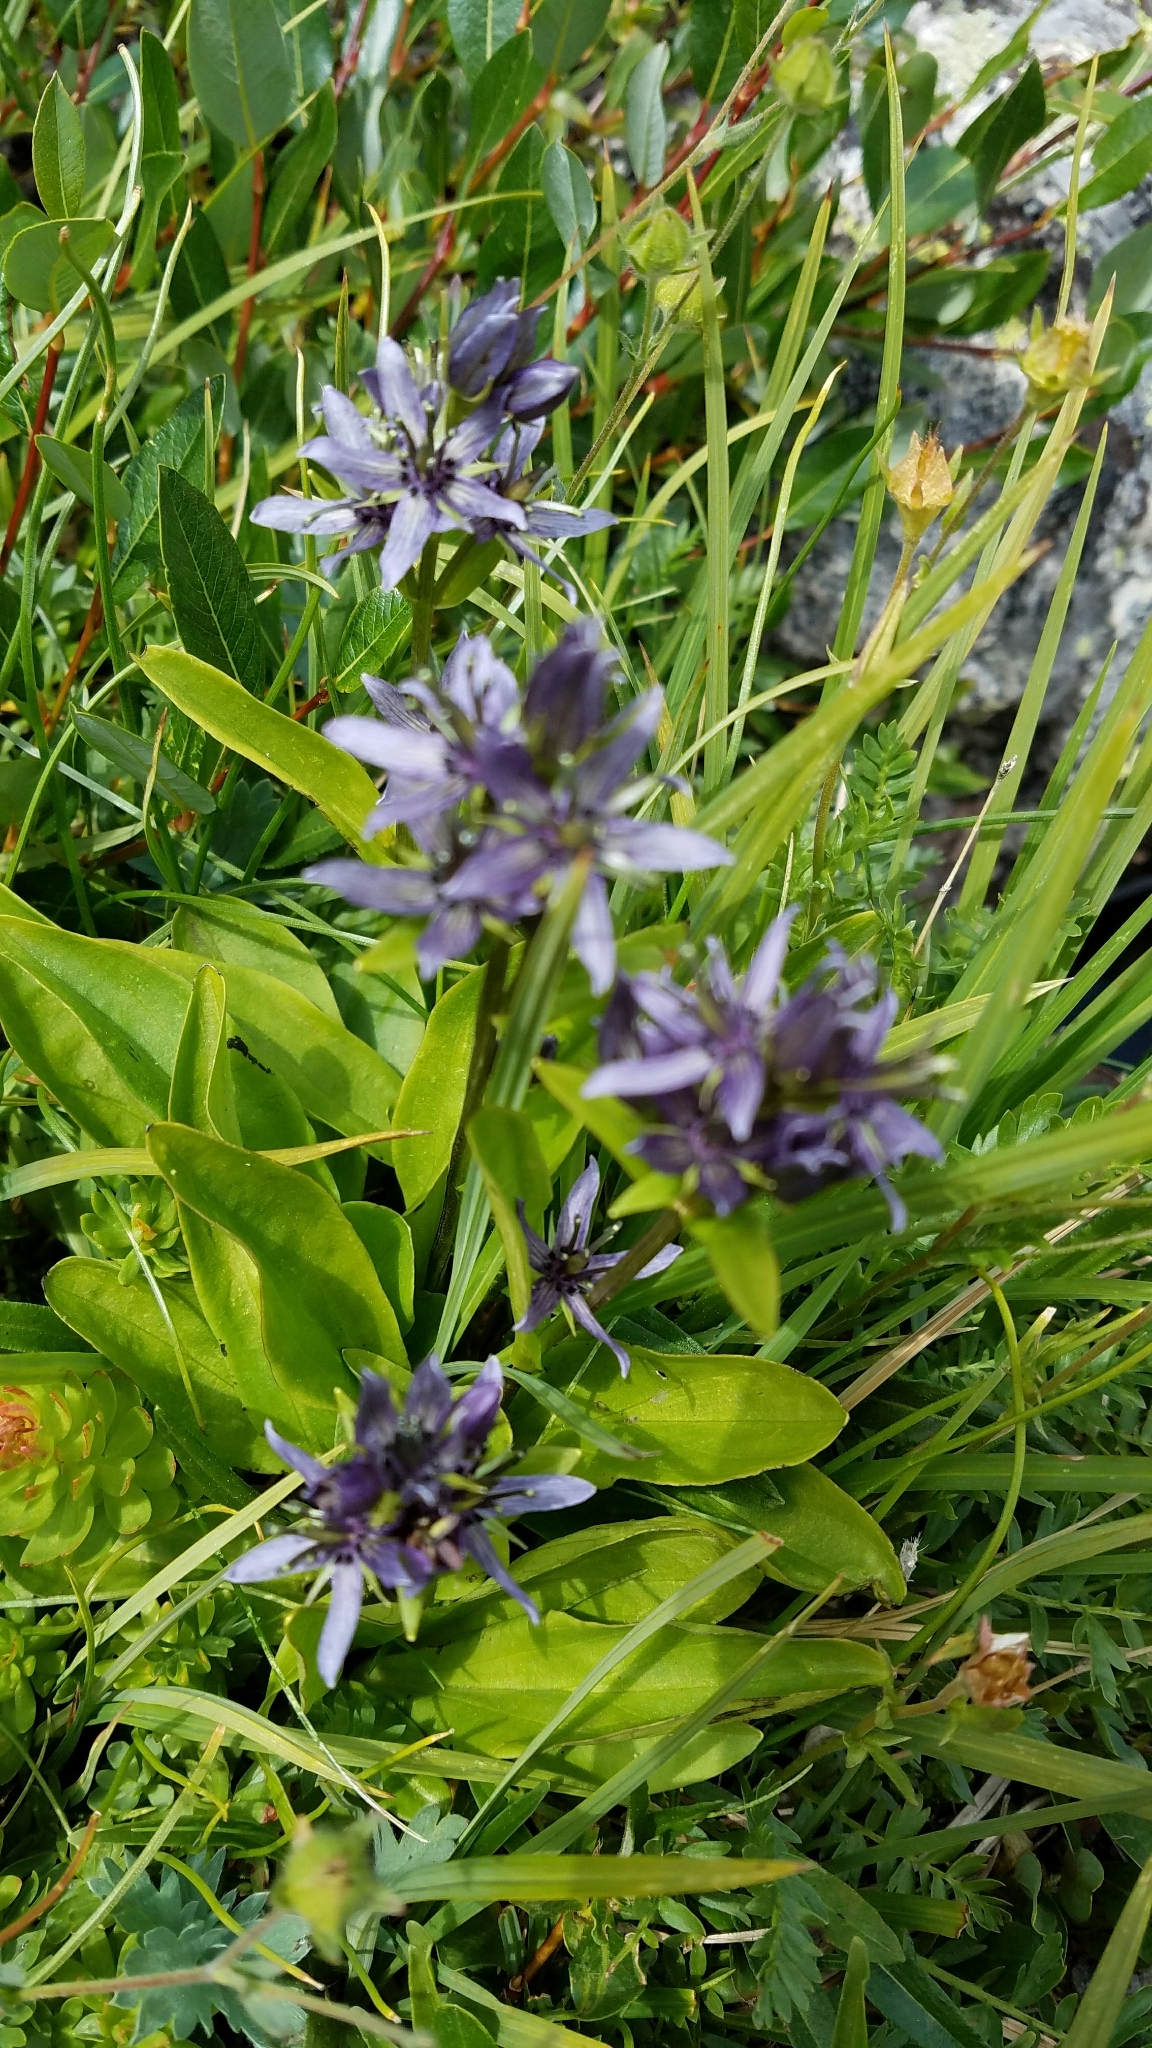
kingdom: Plantae
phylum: Tracheophyta
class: Magnoliopsida
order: Gentianales
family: Gentianaceae
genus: Swertia
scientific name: Swertia perennis
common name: Alpine bog swertia
